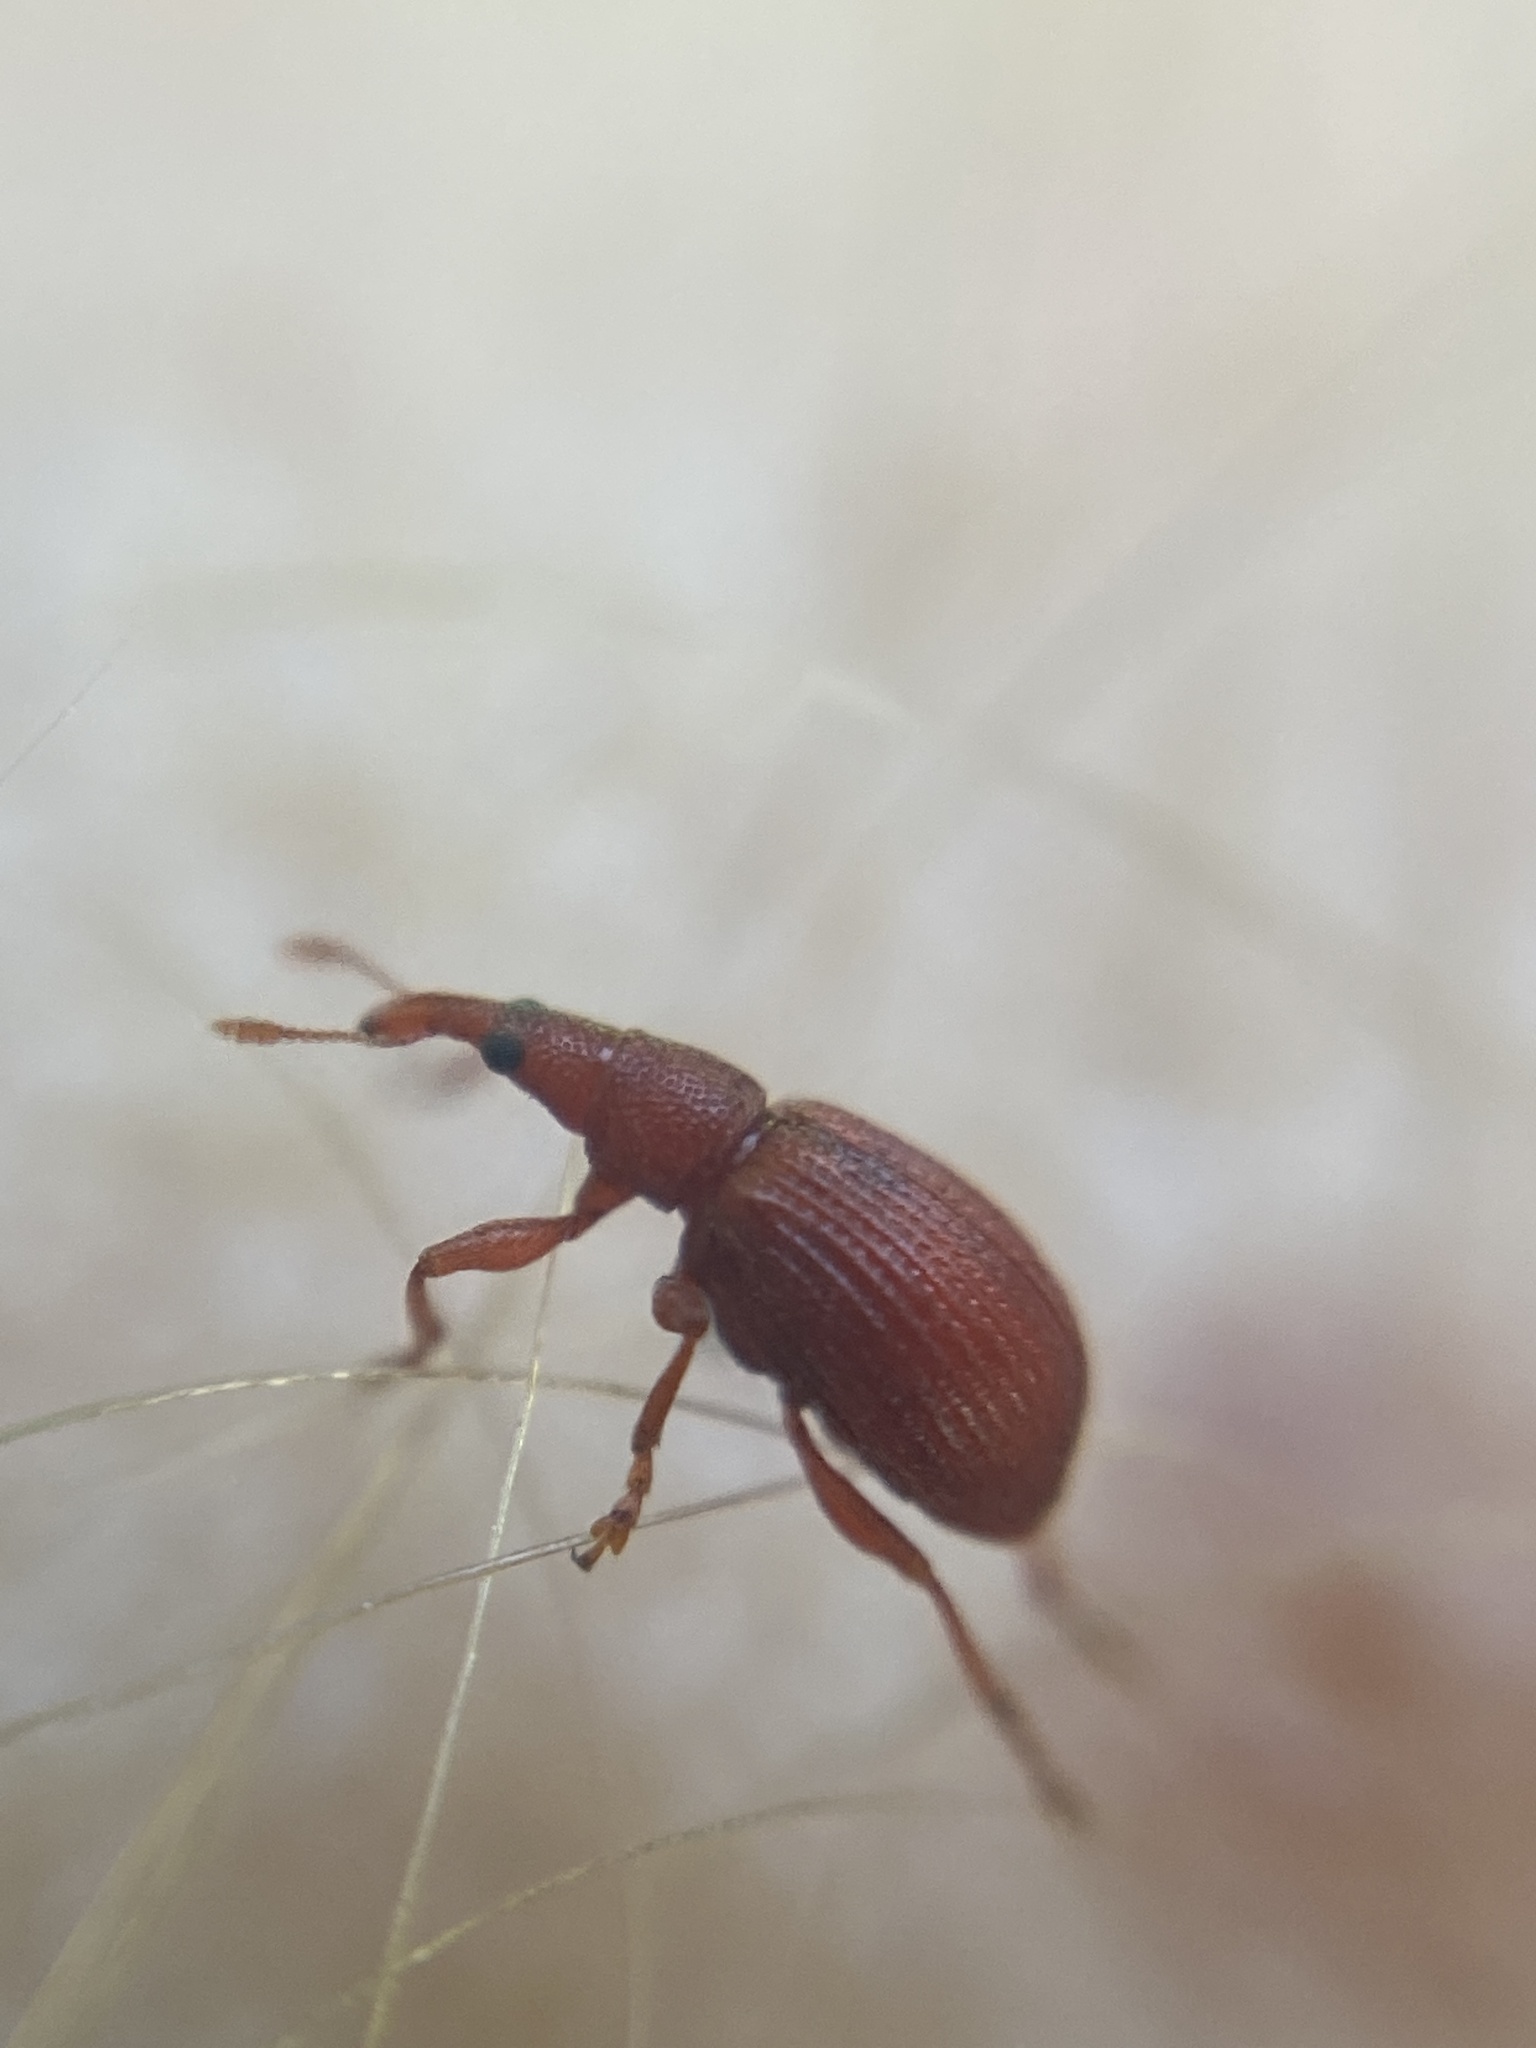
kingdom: Animalia
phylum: Arthropoda
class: Insecta
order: Coleoptera
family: Apionidae
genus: Apion
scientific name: Apion frumentarium
